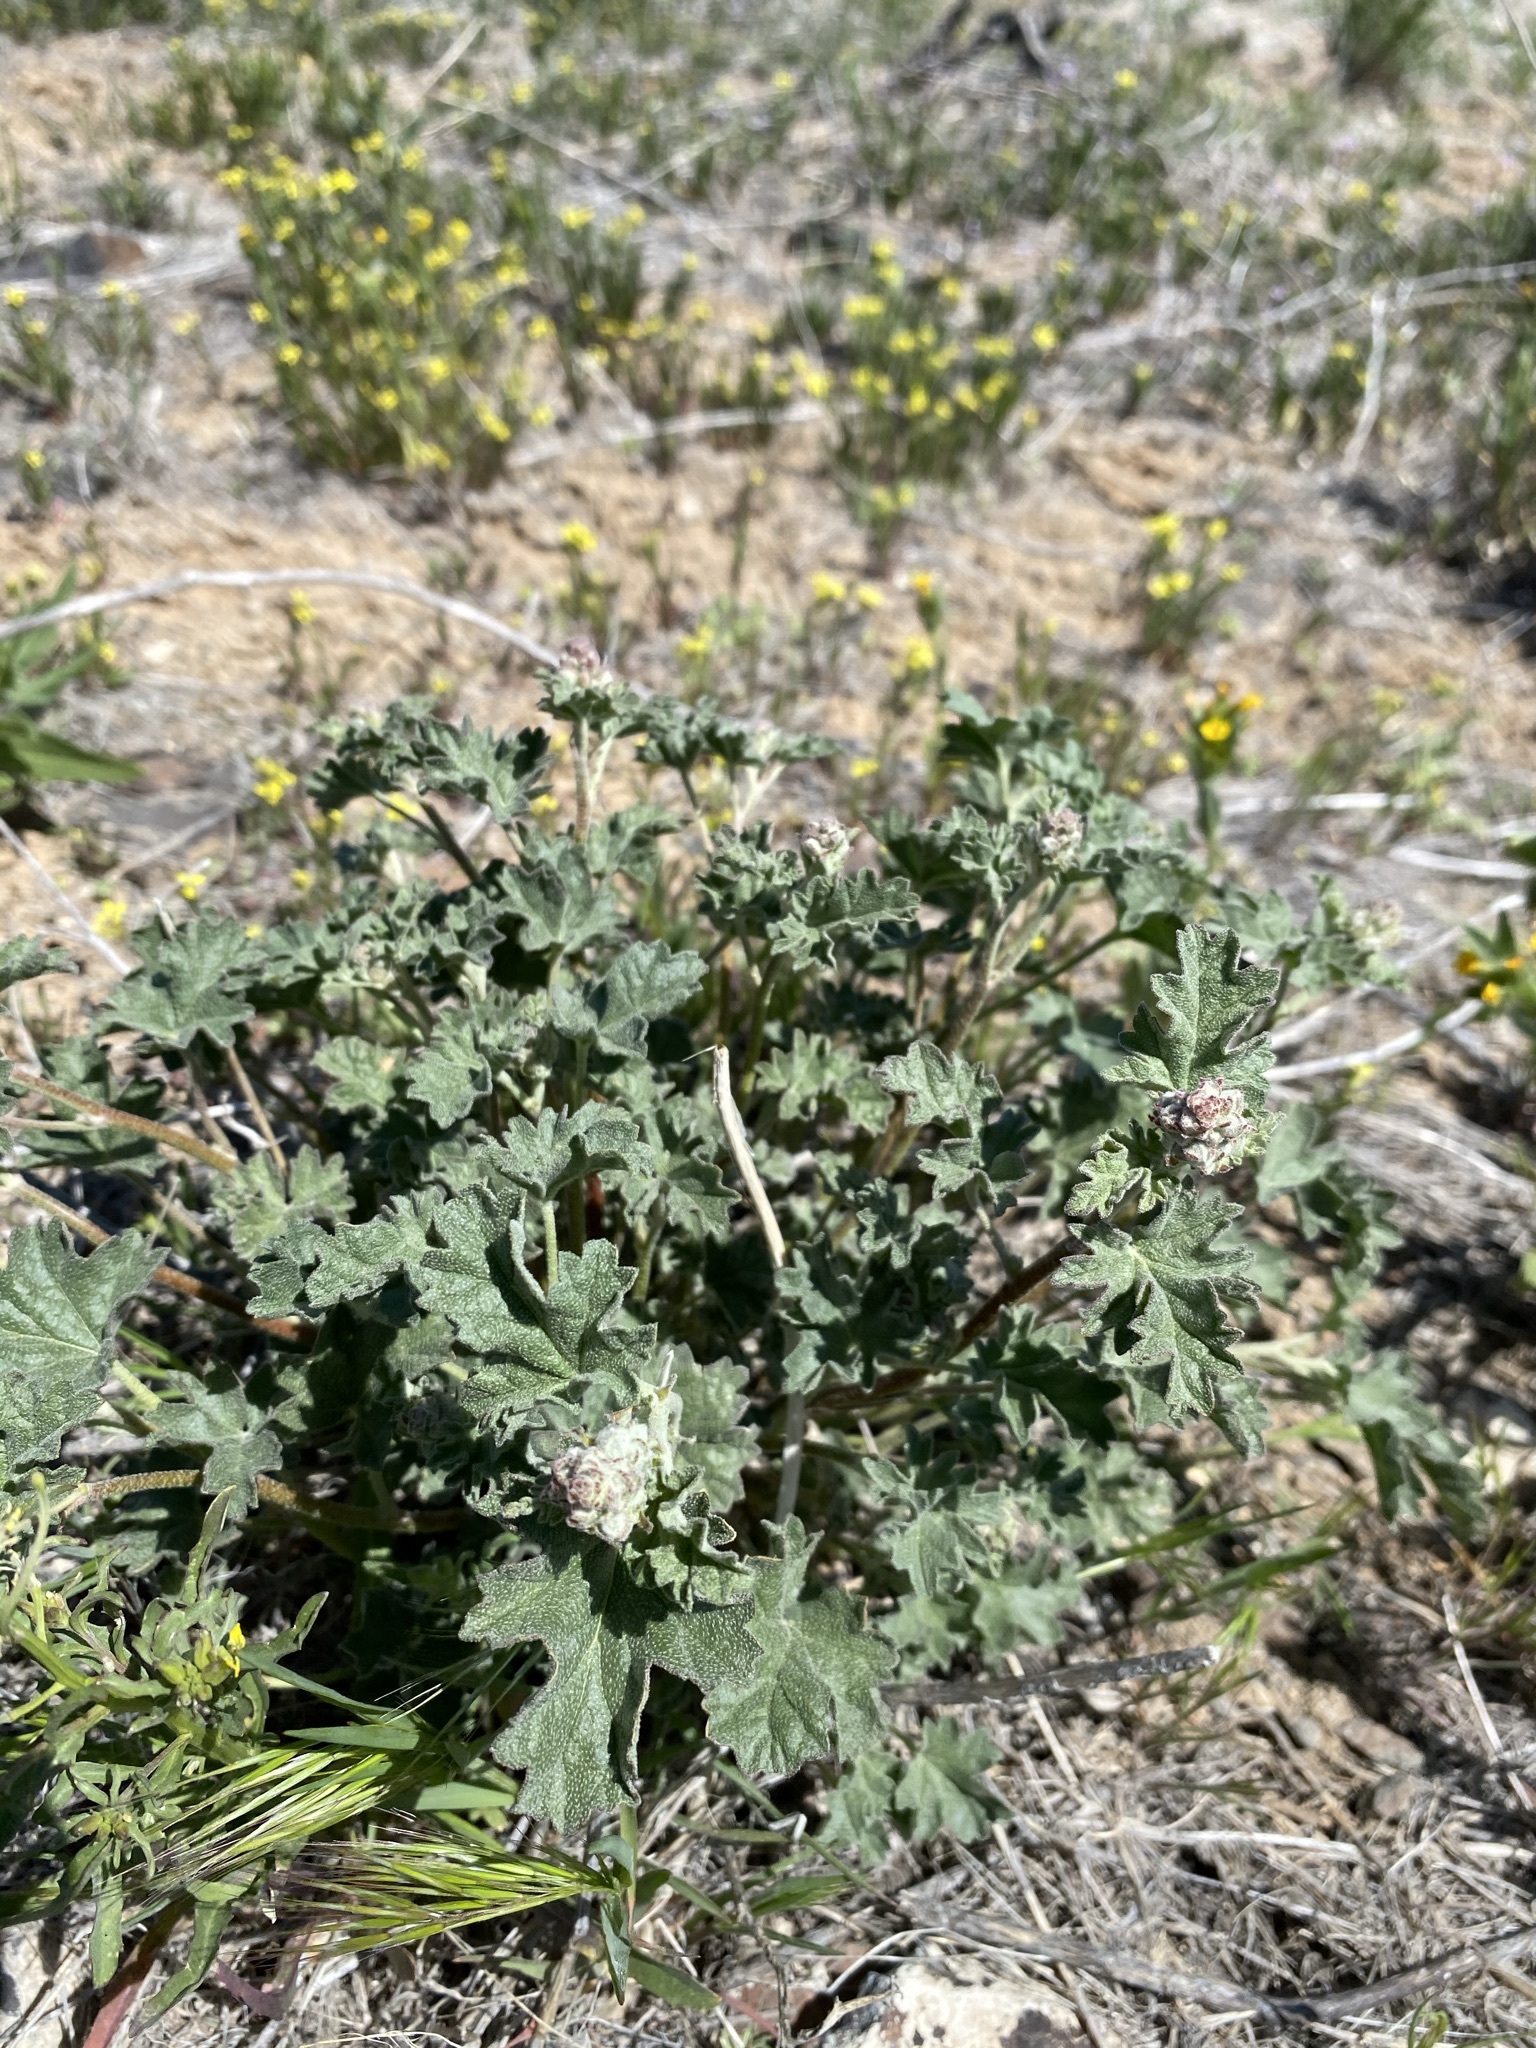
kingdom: Plantae
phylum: Tracheophyta
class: Magnoliopsida
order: Malvales
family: Malvaceae
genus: Sphaeralcea
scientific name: Sphaeralcea munroana
